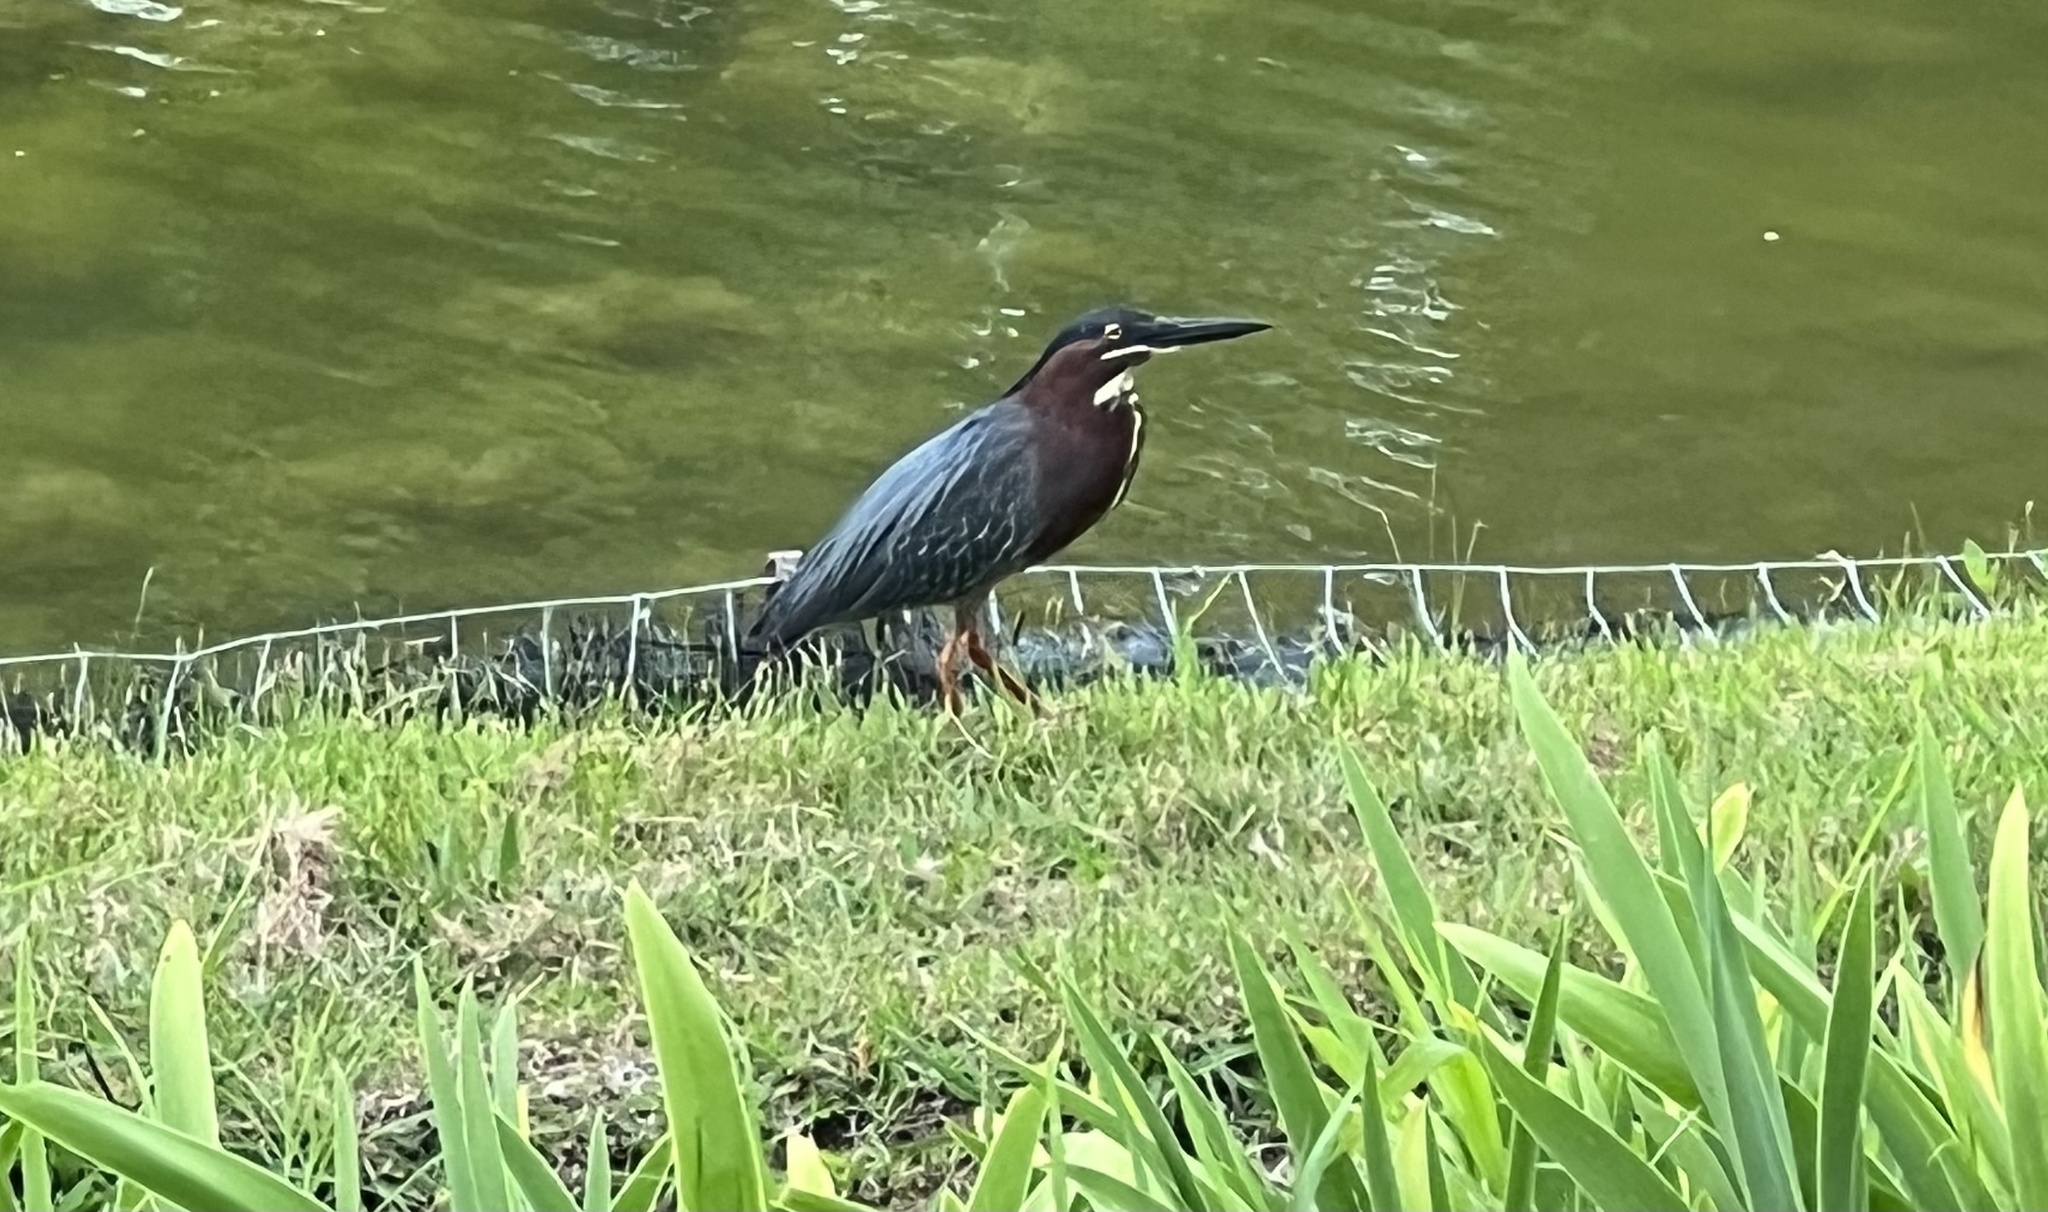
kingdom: Animalia
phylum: Chordata
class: Aves
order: Pelecaniformes
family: Ardeidae
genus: Butorides
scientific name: Butorides virescens
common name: Green heron
